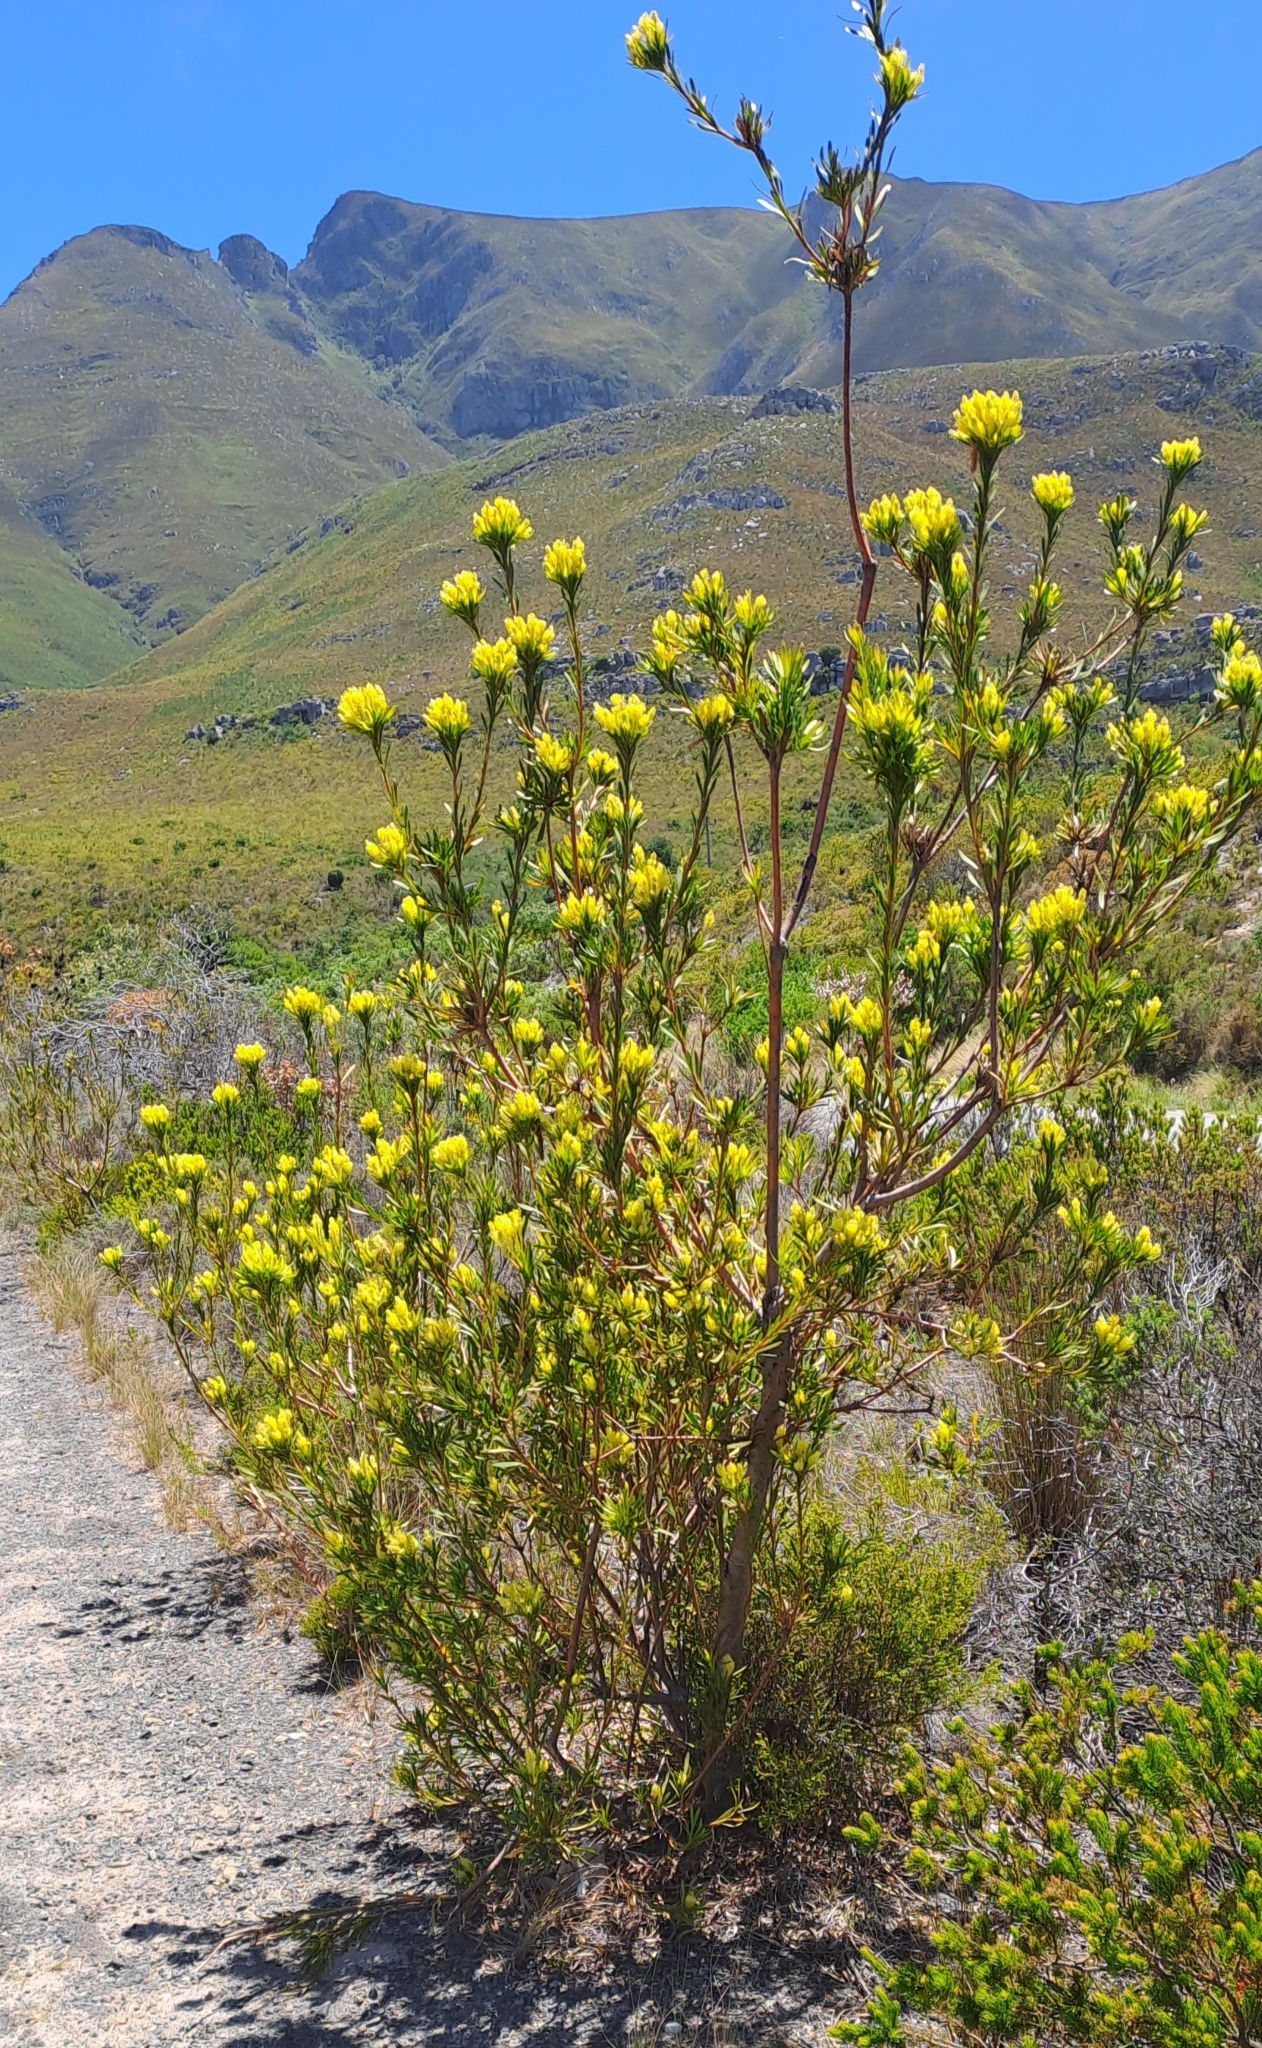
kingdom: Plantae
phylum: Tracheophyta
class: Magnoliopsida
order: Proteales
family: Proteaceae
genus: Aulax
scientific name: Aulax umbellata
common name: Broad-leaf featherbush
